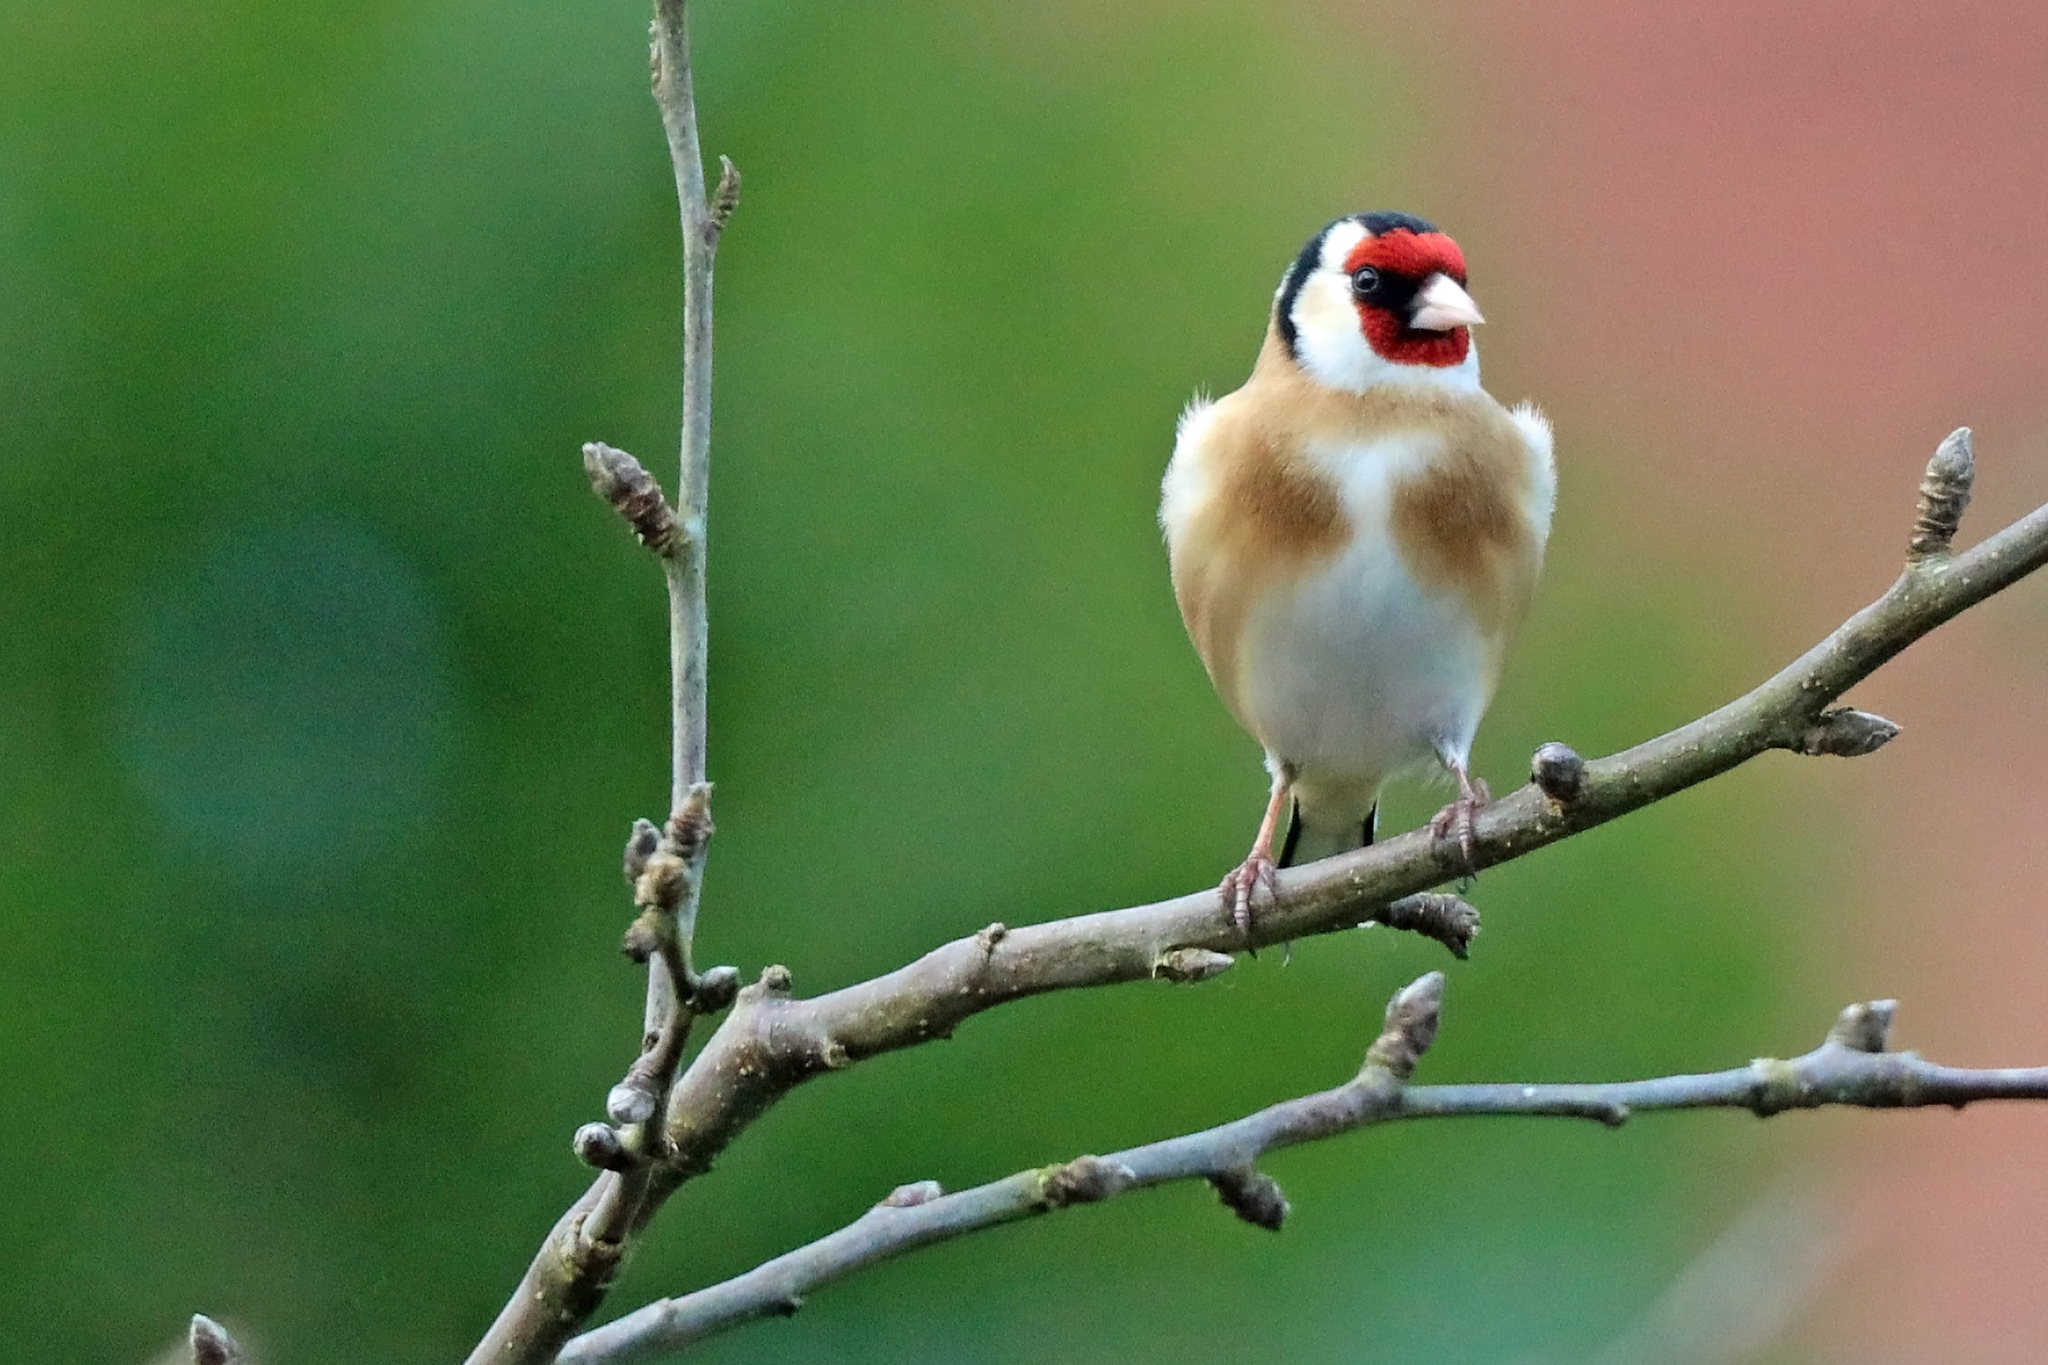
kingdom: Animalia
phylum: Chordata
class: Aves
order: Passeriformes
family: Fringillidae
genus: Carduelis
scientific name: Carduelis carduelis
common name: European goldfinch
